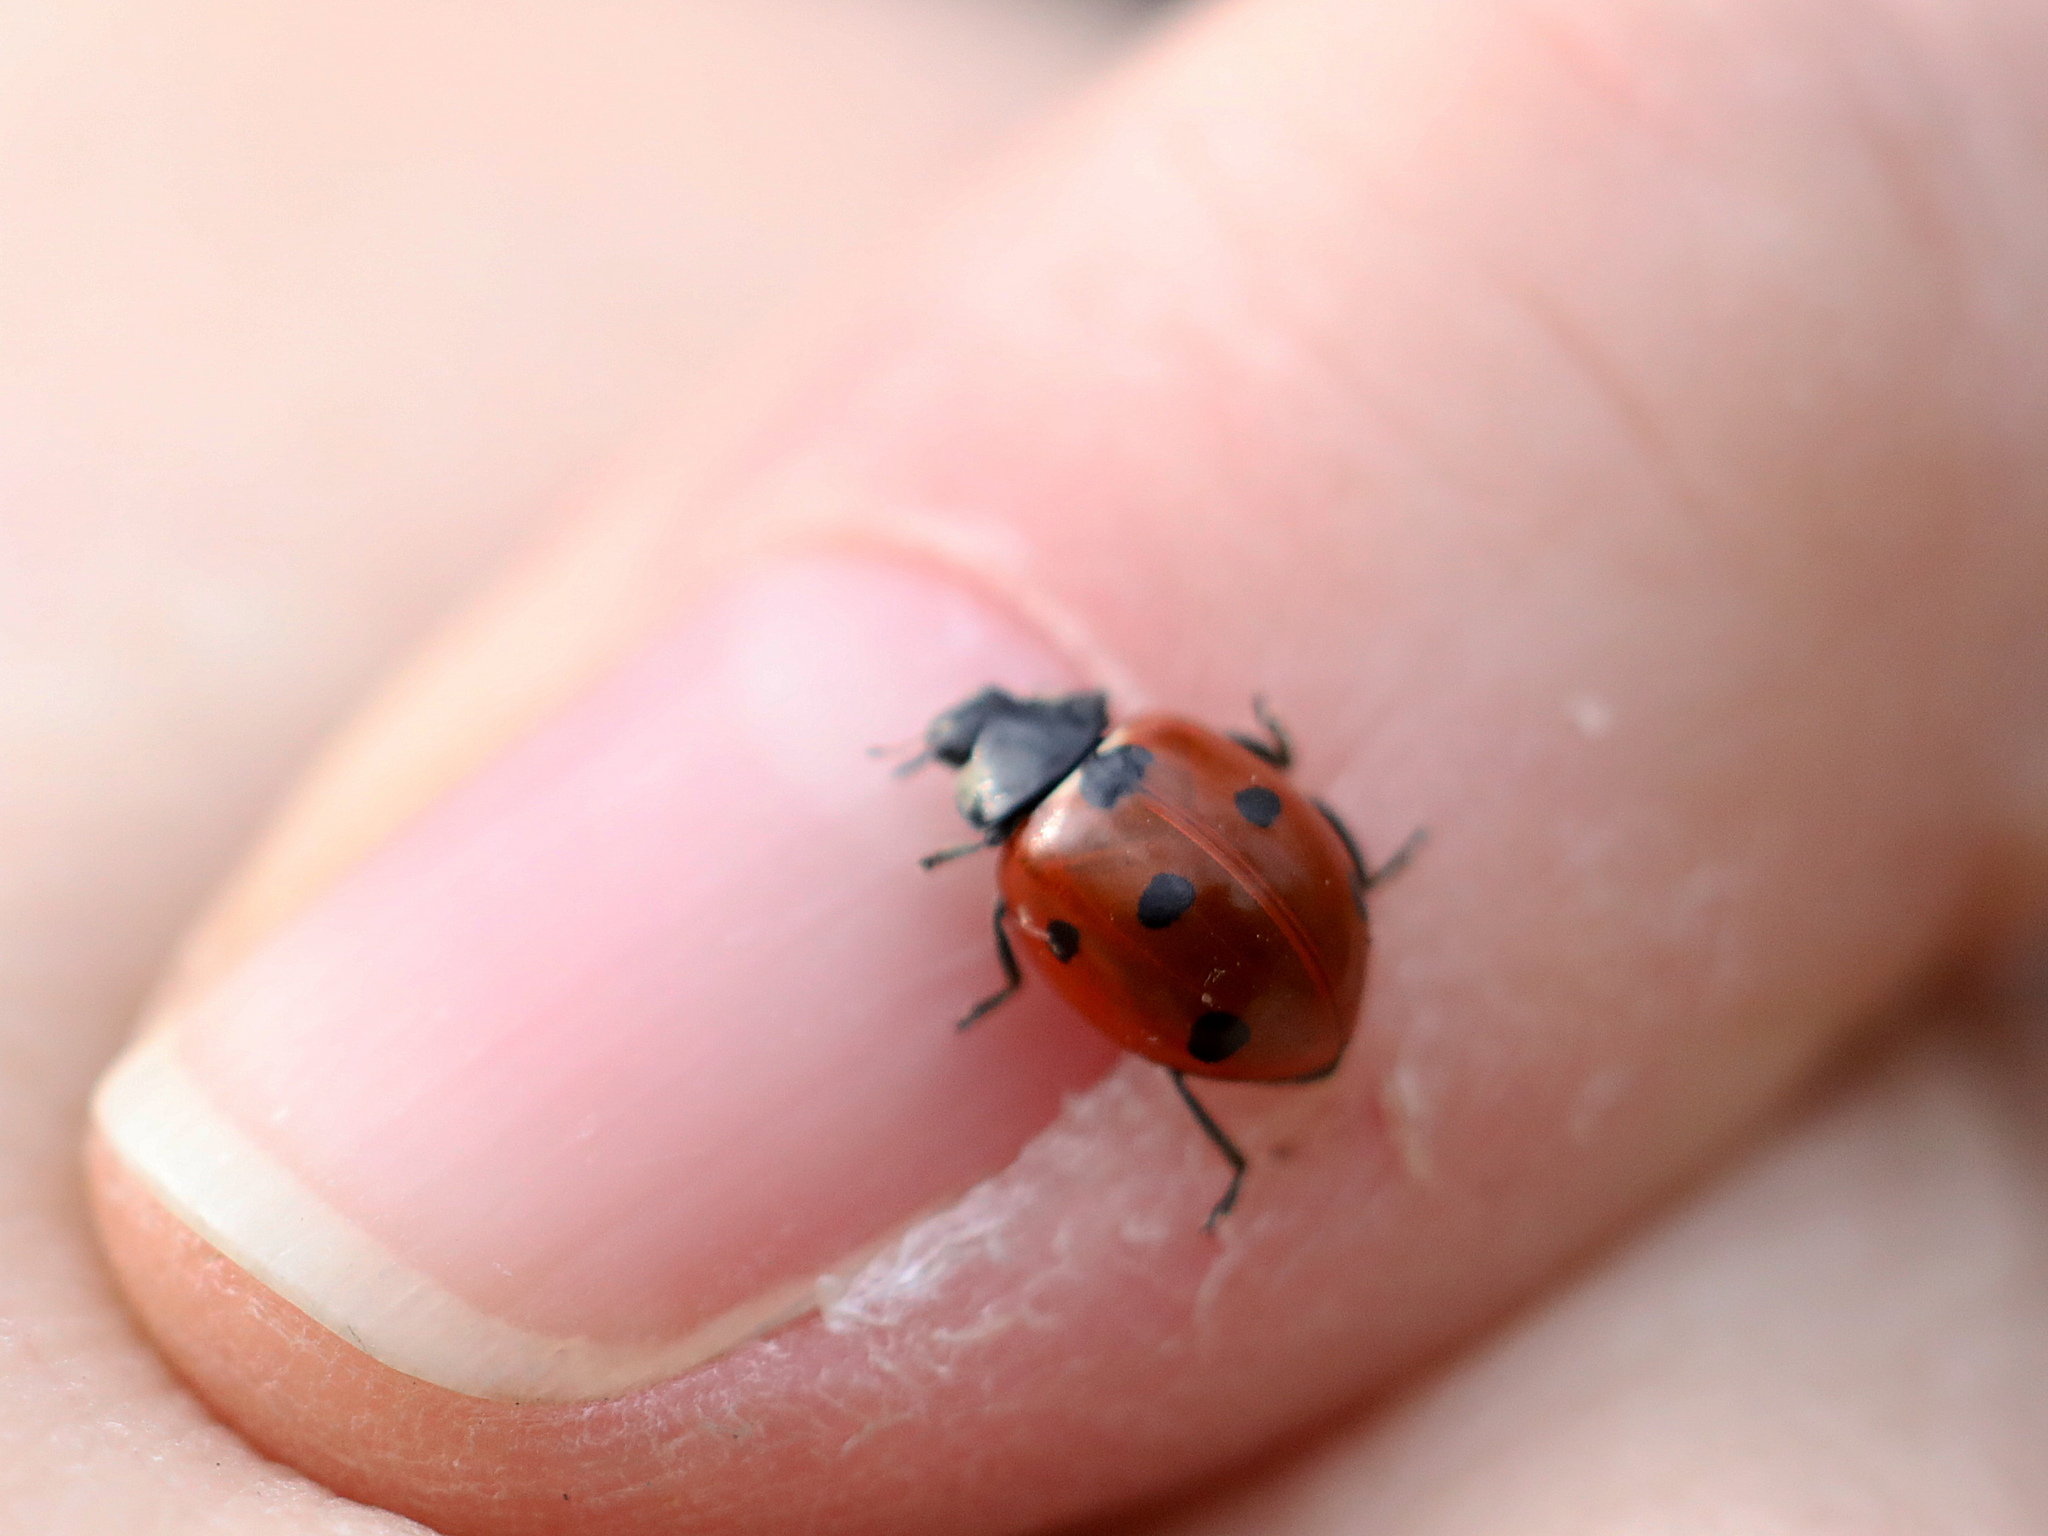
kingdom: Animalia
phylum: Arthropoda
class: Insecta
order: Coleoptera
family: Coccinellidae
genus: Coccinella
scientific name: Coccinella septempunctata
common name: Sevenspotted lady beetle
